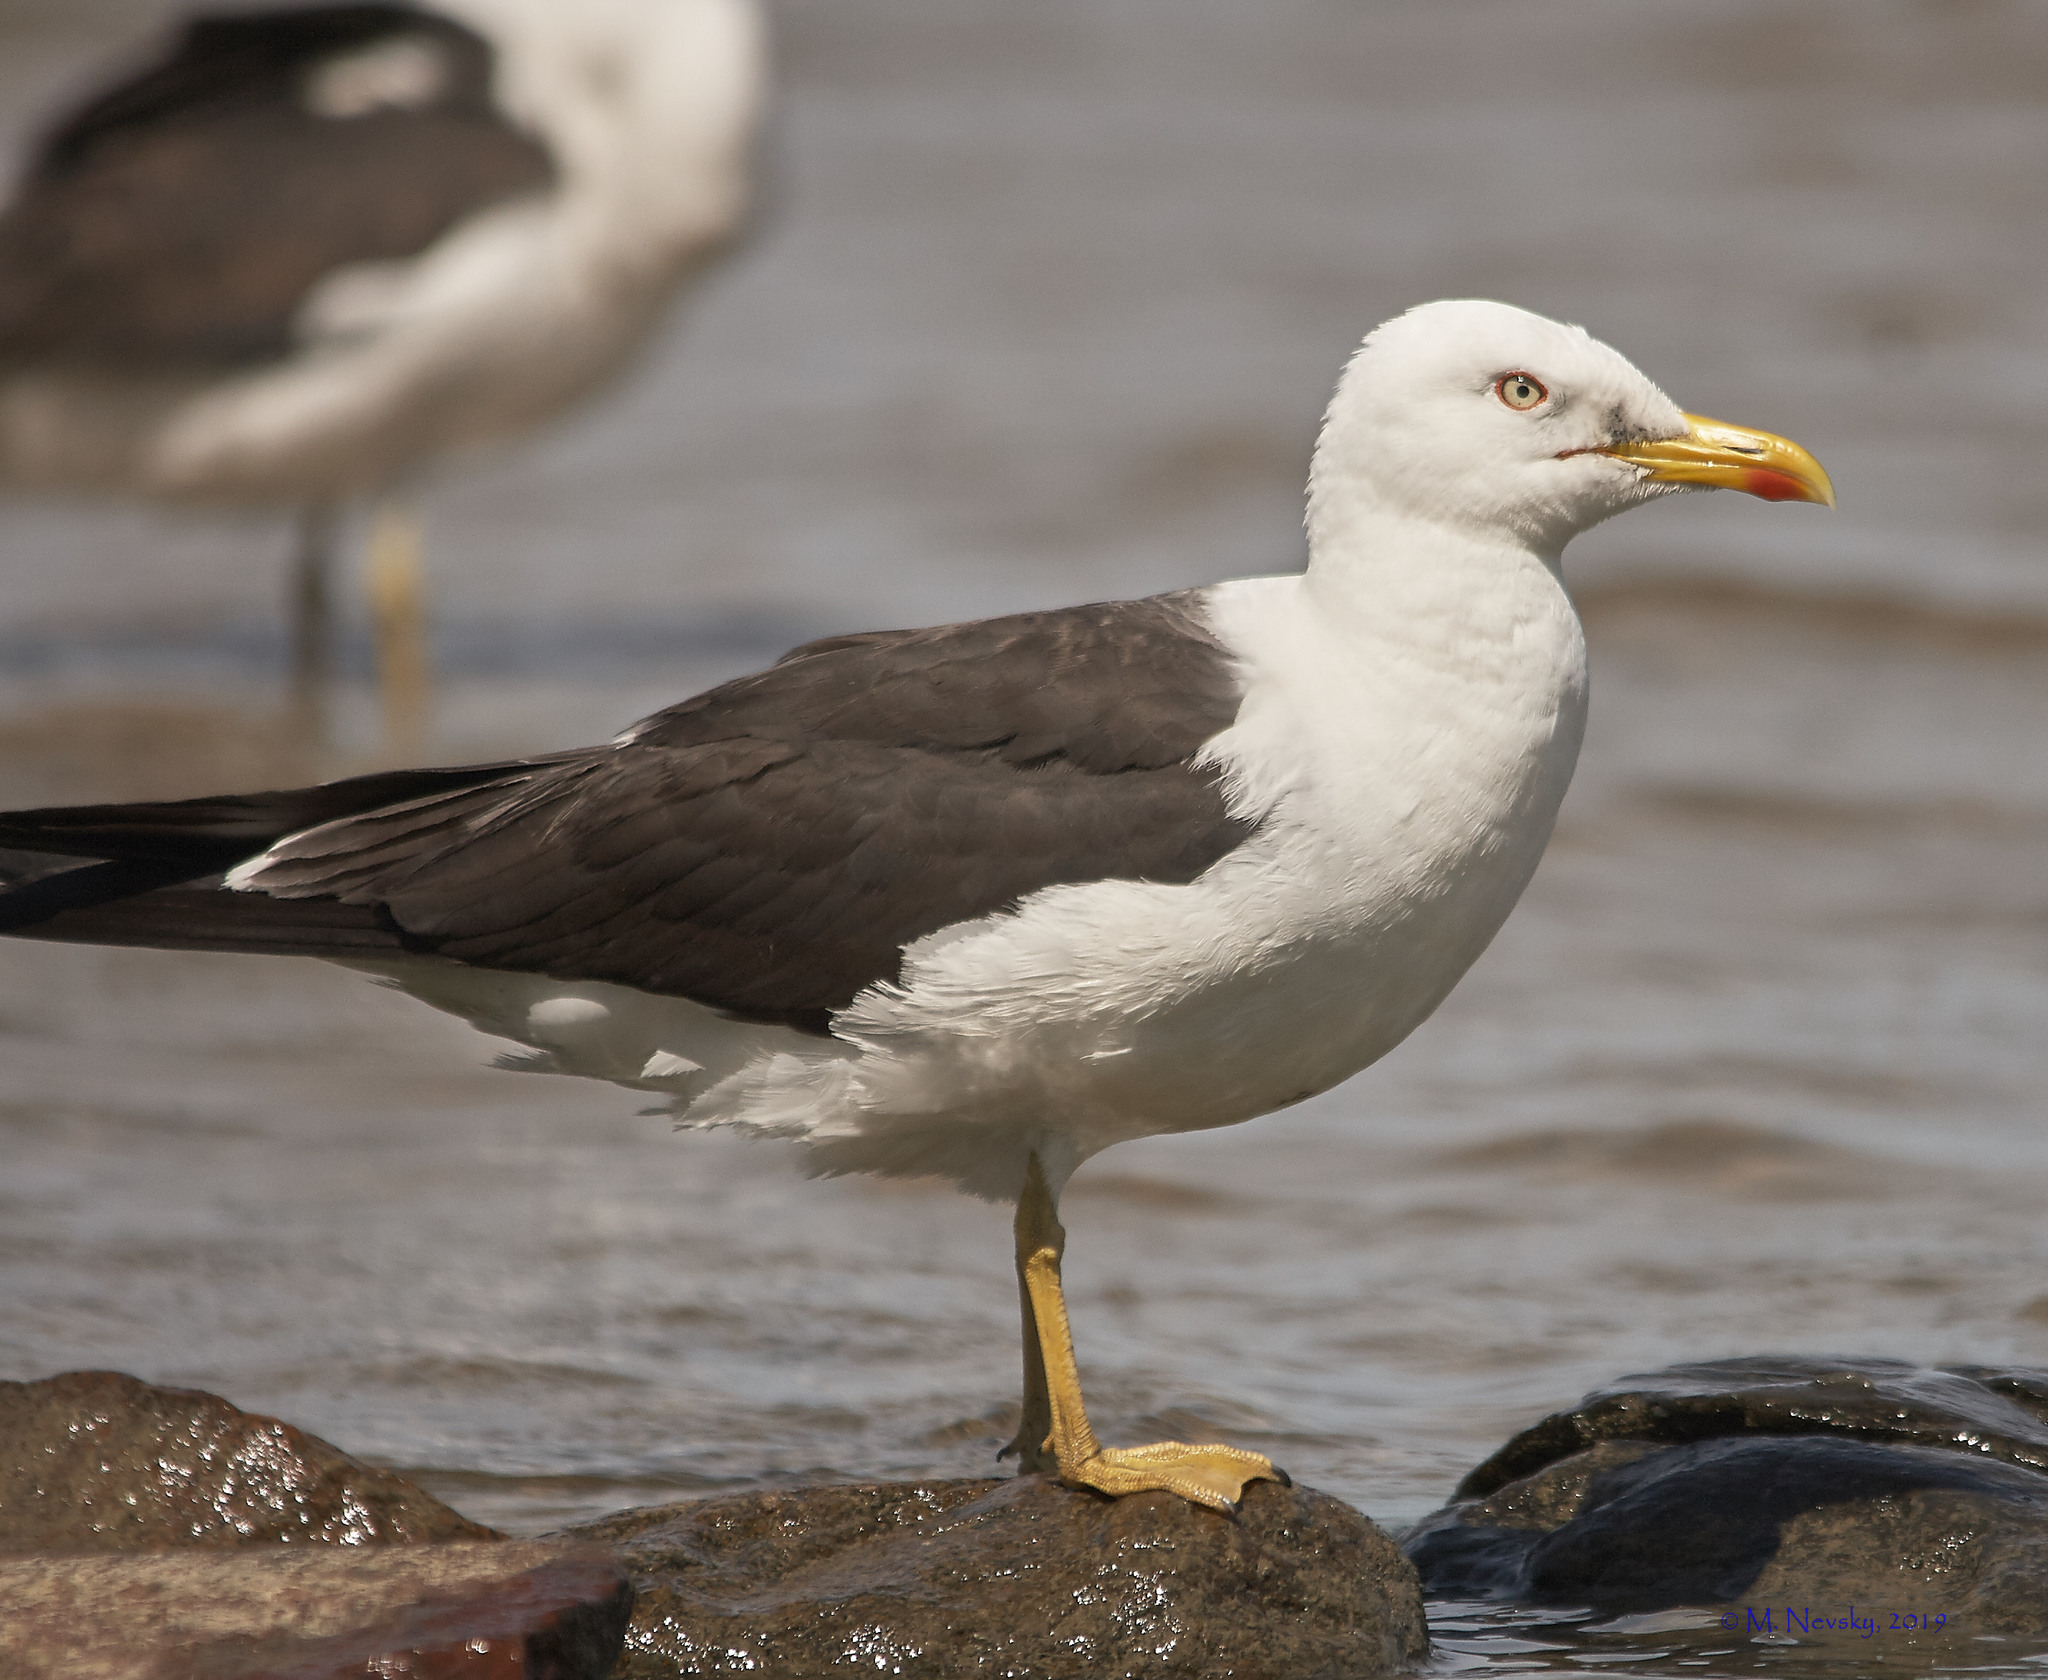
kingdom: Animalia
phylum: Chordata
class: Aves
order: Charadriiformes
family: Laridae
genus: Larus
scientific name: Larus fuscus
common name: Lesser black-backed gull
